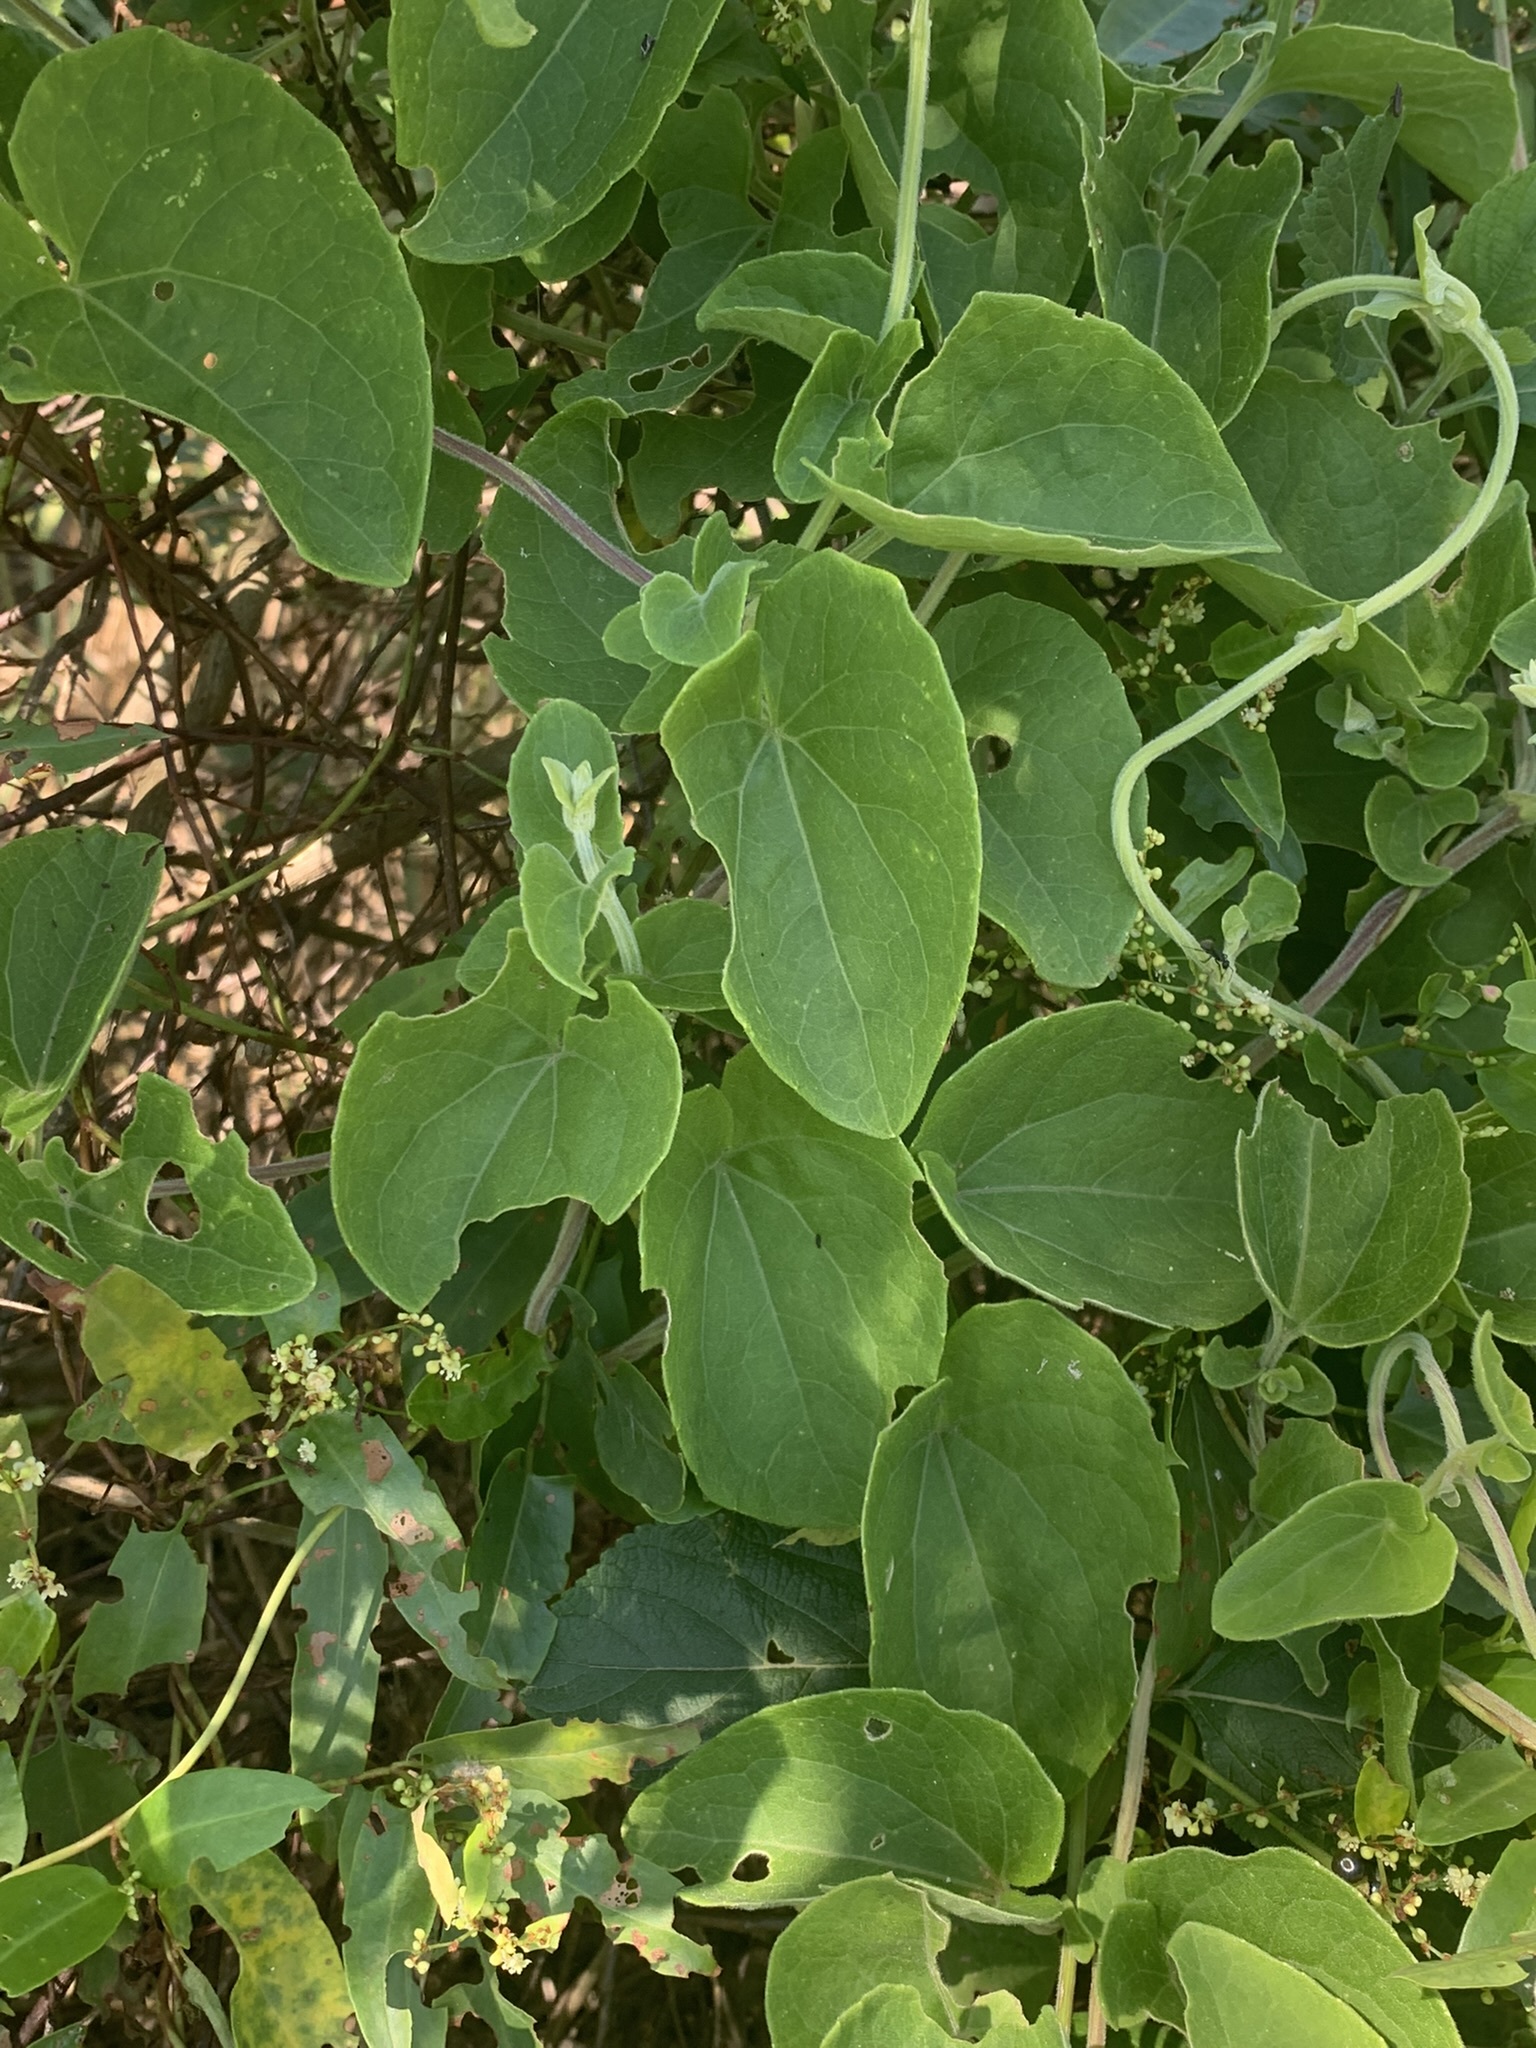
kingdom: Plantae
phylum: Tracheophyta
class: Magnoliopsida
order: Asterales
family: Asteraceae
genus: Mikania
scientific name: Mikania cordifolia
